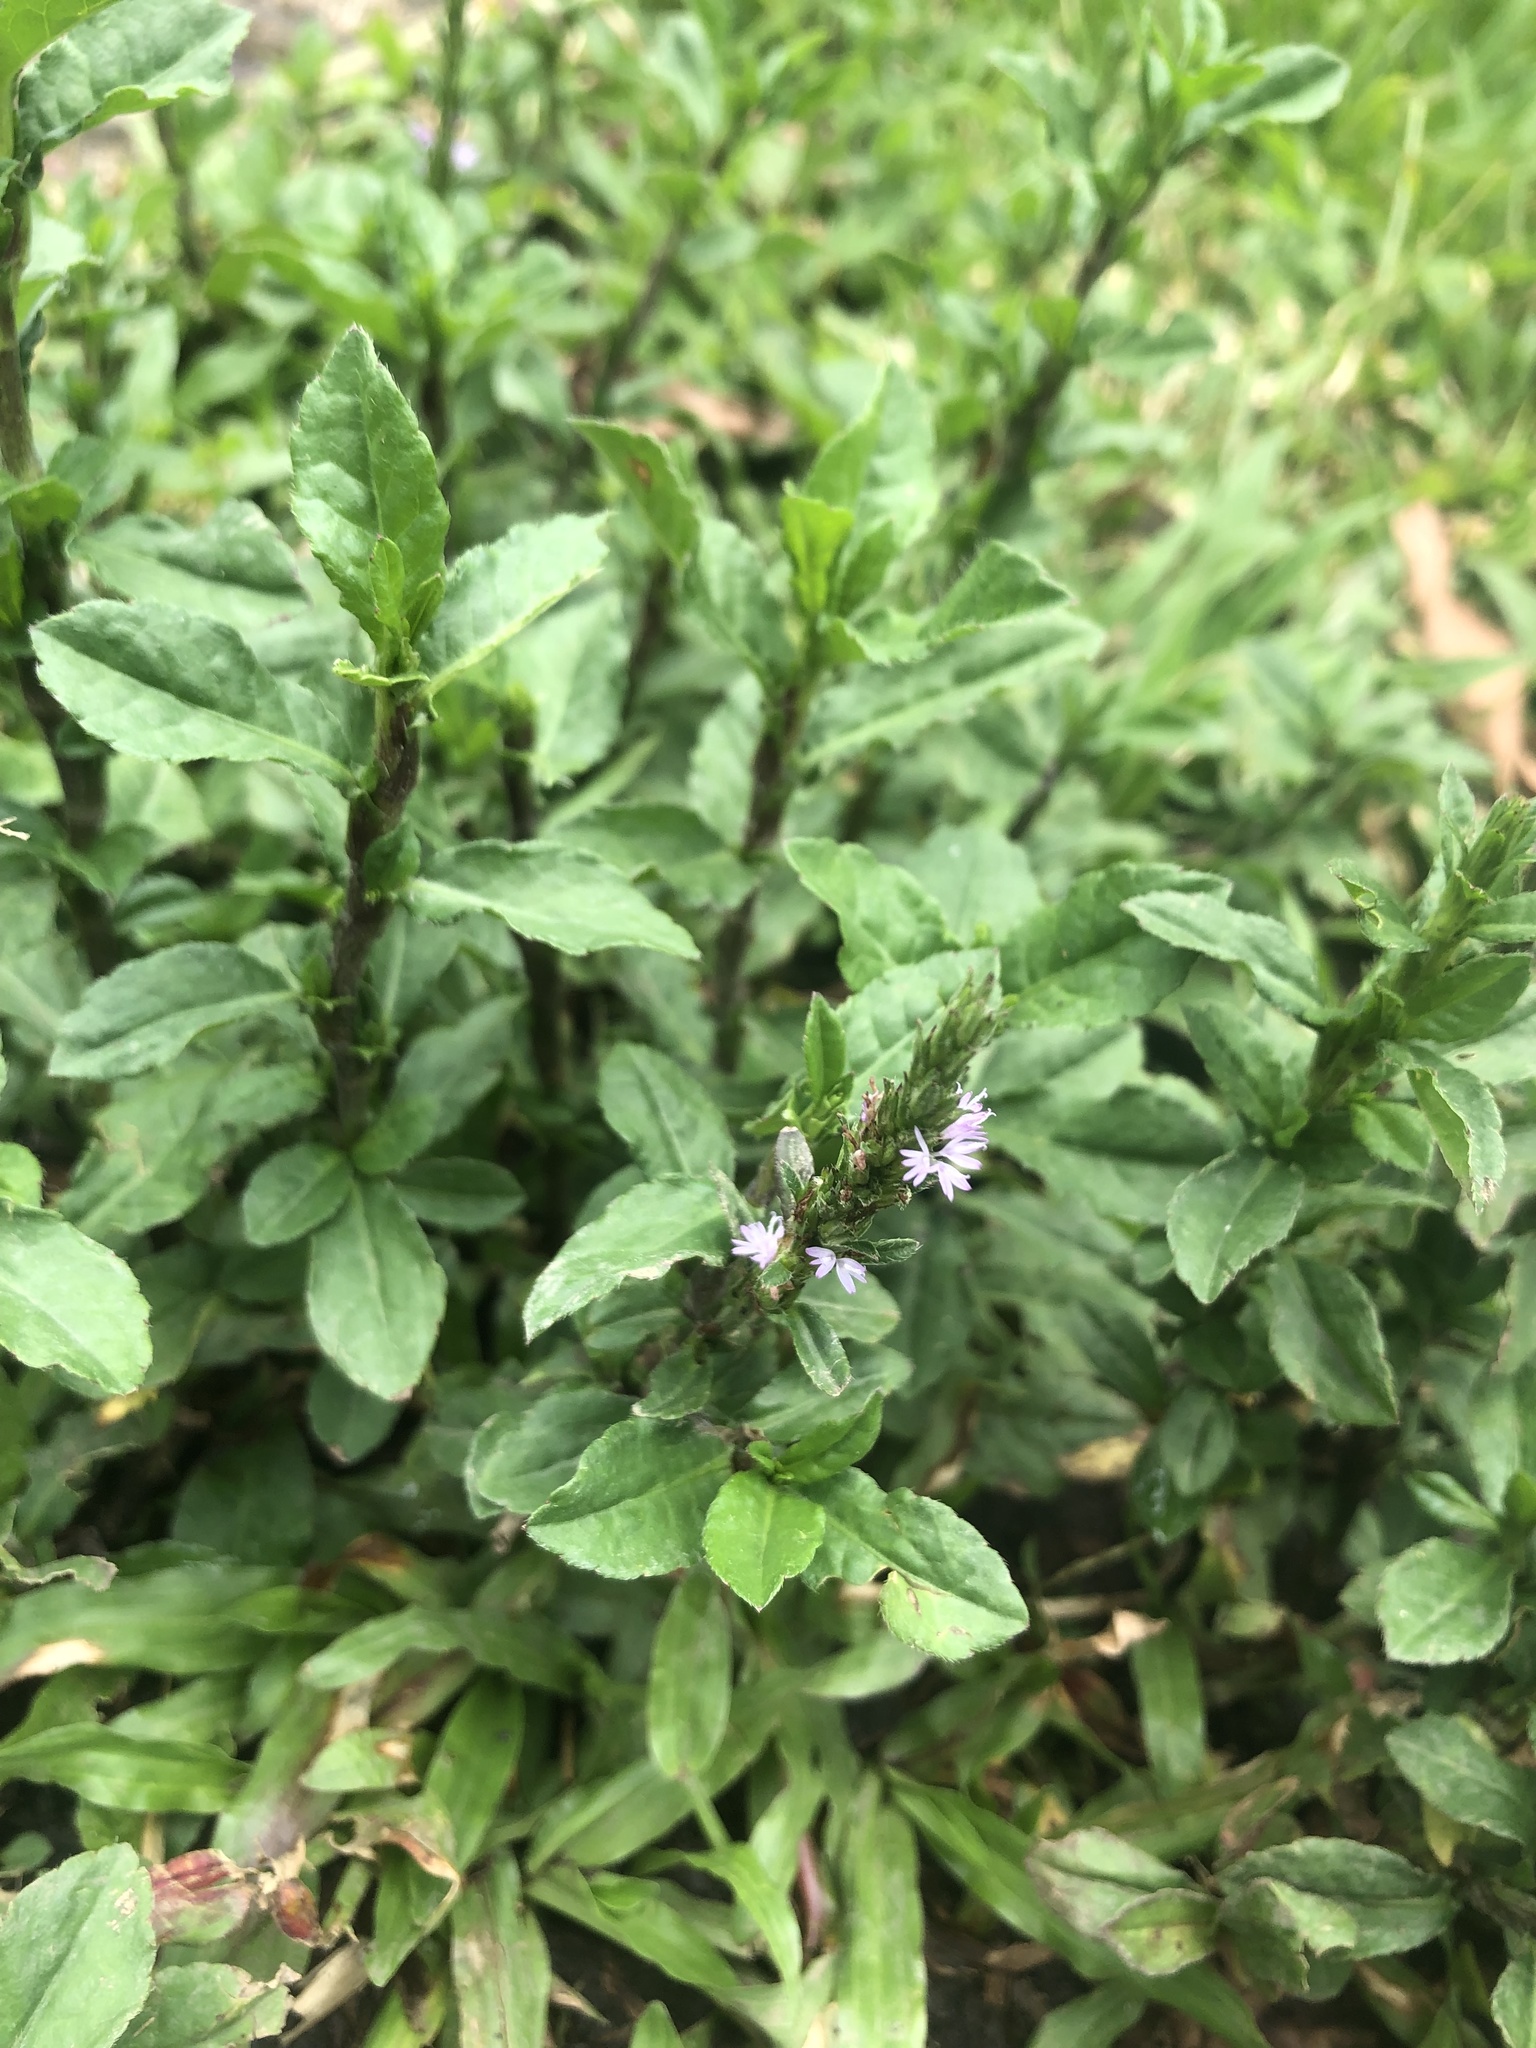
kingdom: Plantae
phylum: Tracheophyta
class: Magnoliopsida
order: Asterales
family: Asteraceae
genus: Pseudelephantopus
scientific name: Pseudelephantopus spicatus
